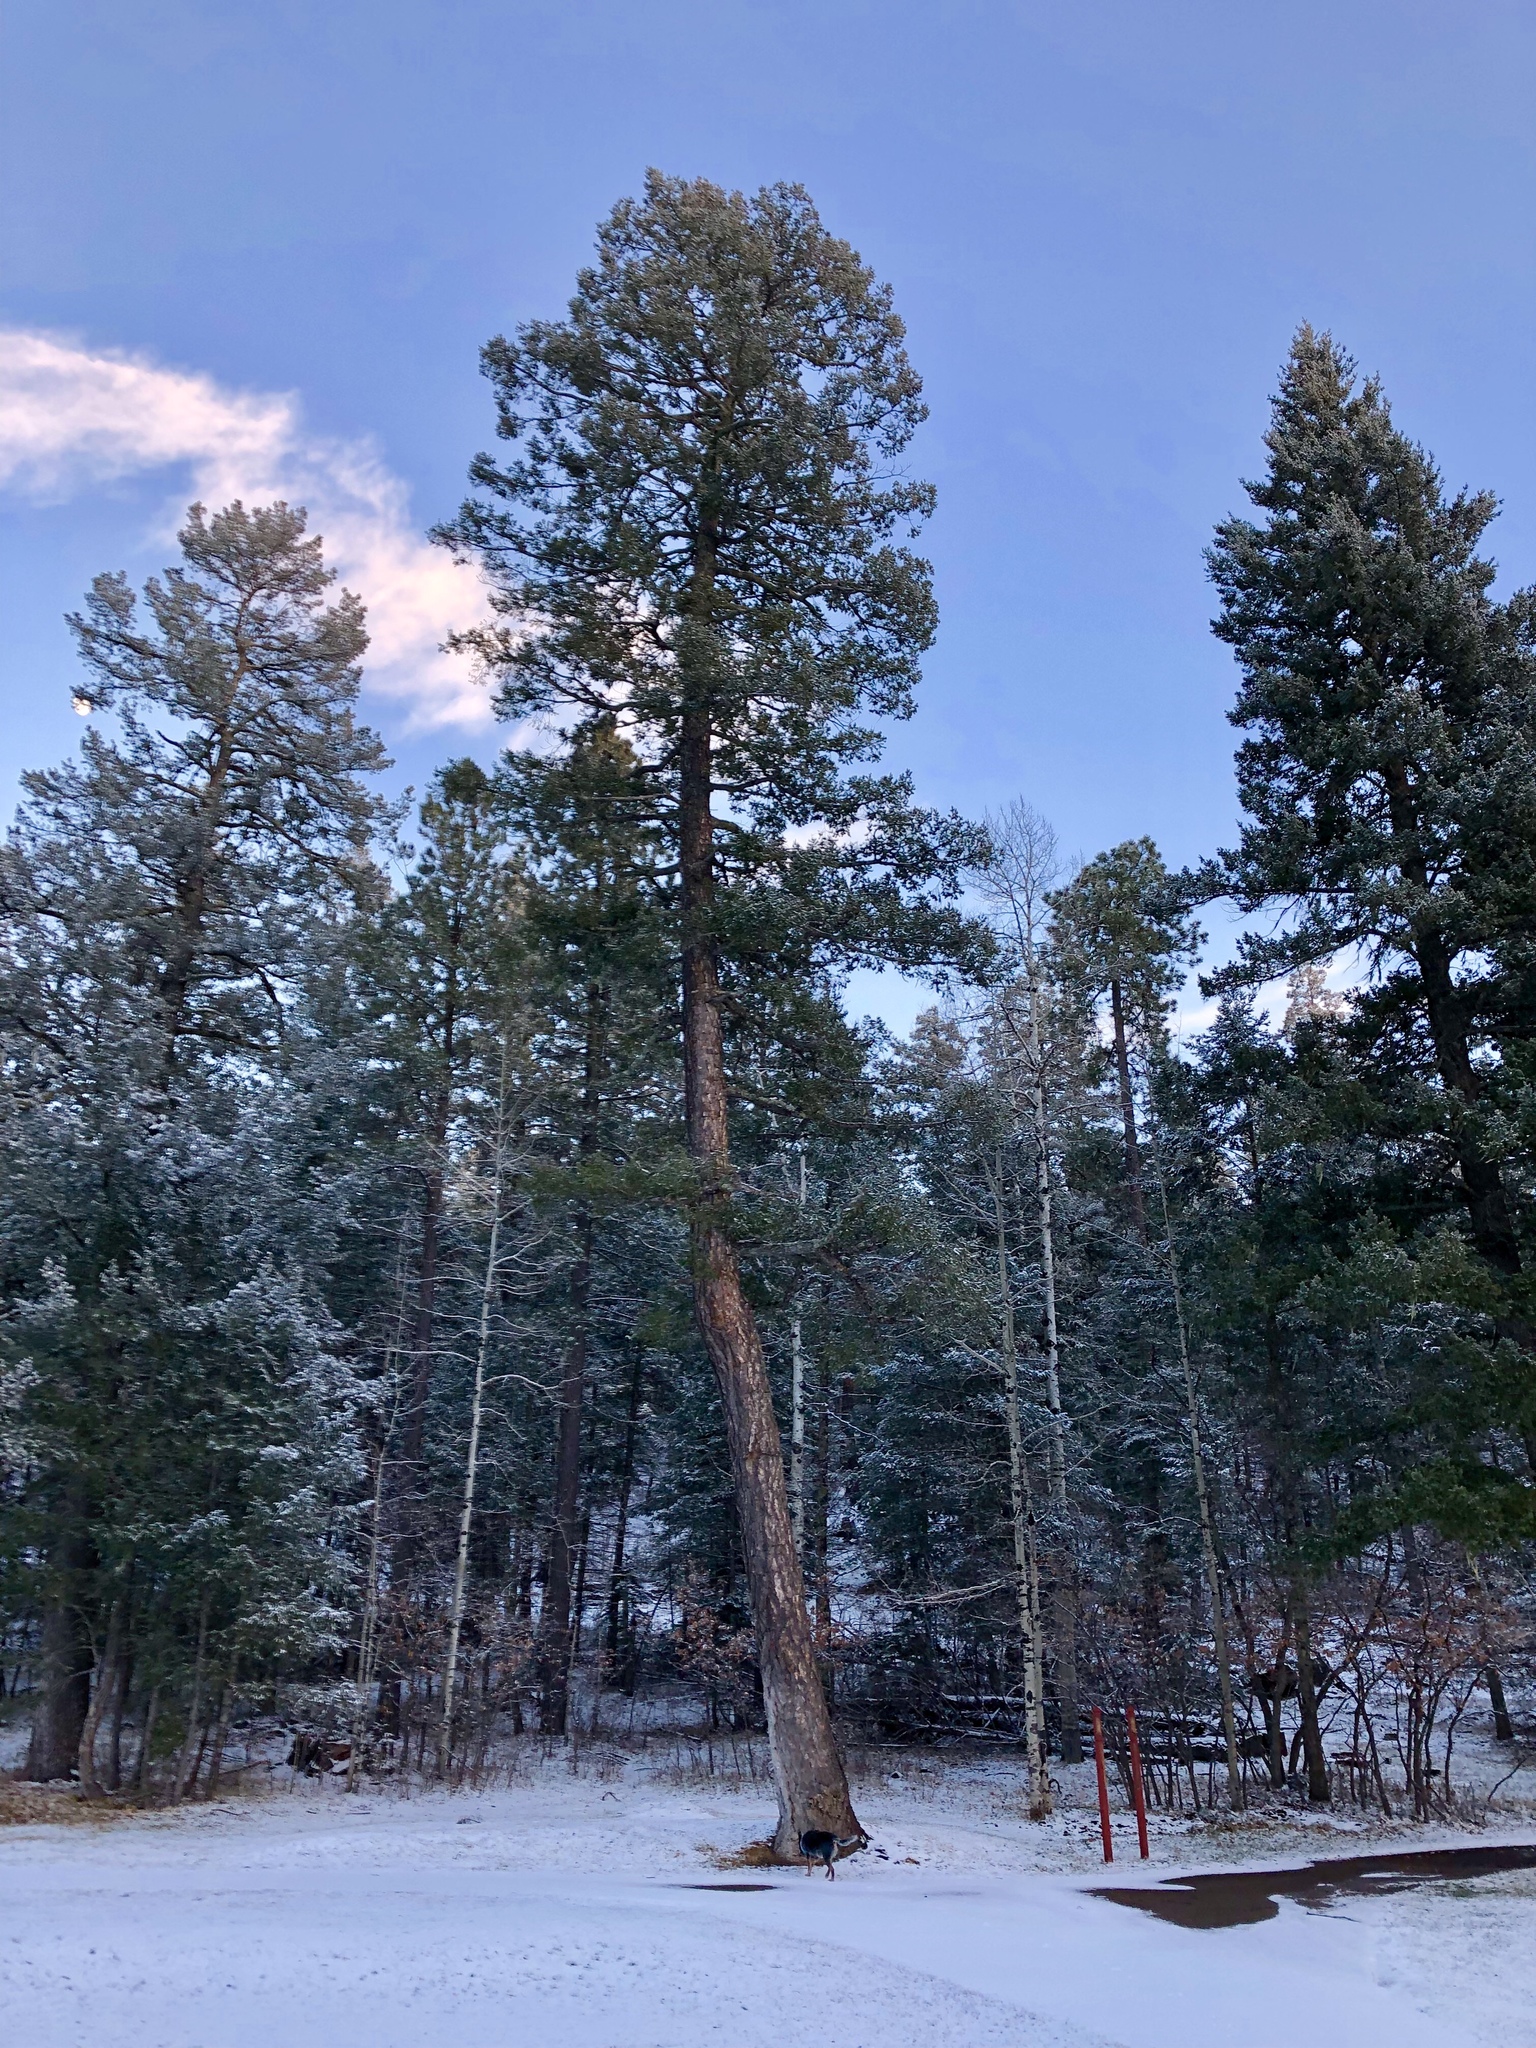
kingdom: Plantae
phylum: Tracheophyta
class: Pinopsida
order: Pinales
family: Pinaceae
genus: Pinus
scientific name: Pinus ponderosa
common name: Western yellow-pine
